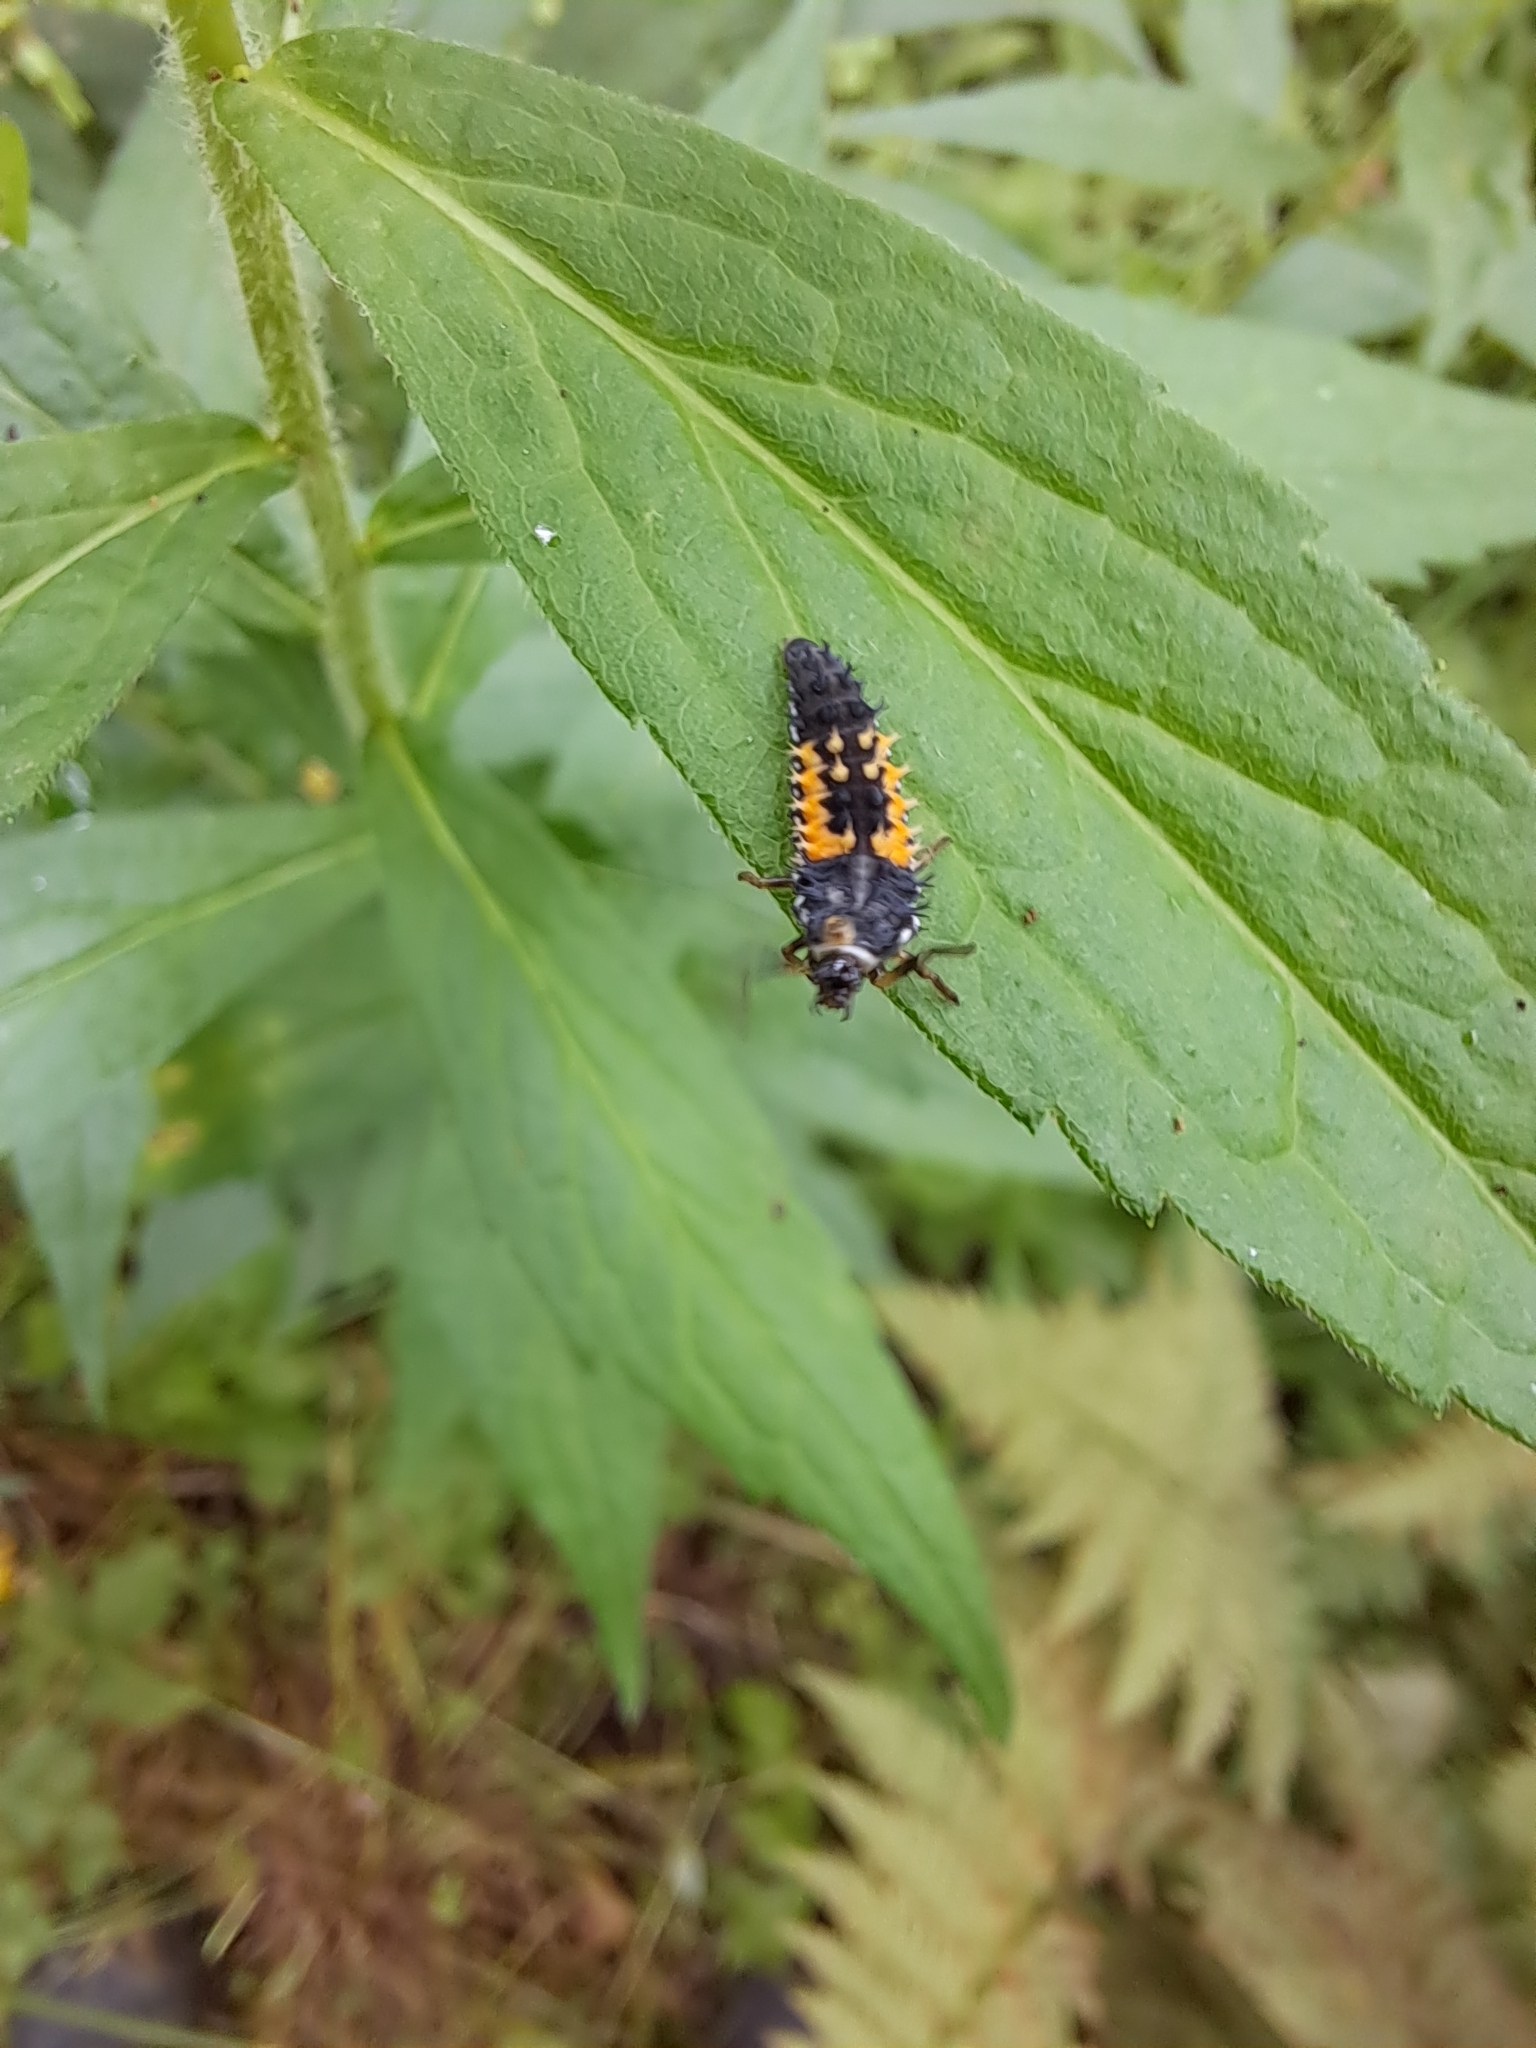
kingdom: Animalia
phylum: Arthropoda
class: Insecta
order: Coleoptera
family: Coccinellidae
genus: Harmonia
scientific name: Harmonia axyridis
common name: Harlequin ladybird
